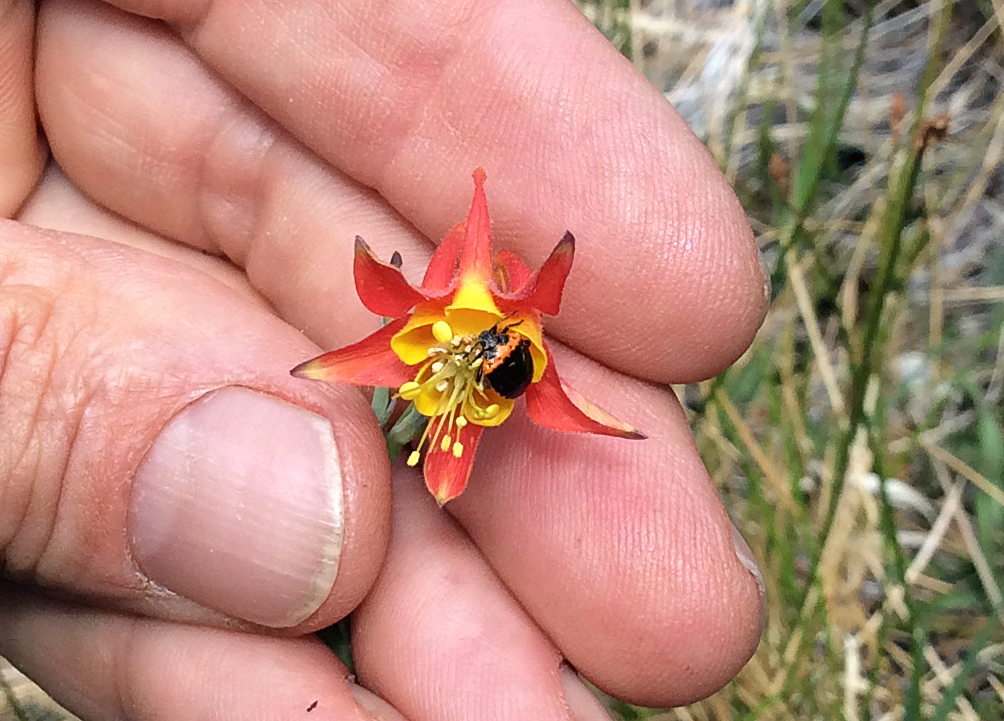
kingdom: Plantae
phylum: Tracheophyta
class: Magnoliopsida
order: Ranunculales
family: Ranunculaceae
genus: Aquilegia
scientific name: Aquilegia formosa
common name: Sitka columbine
